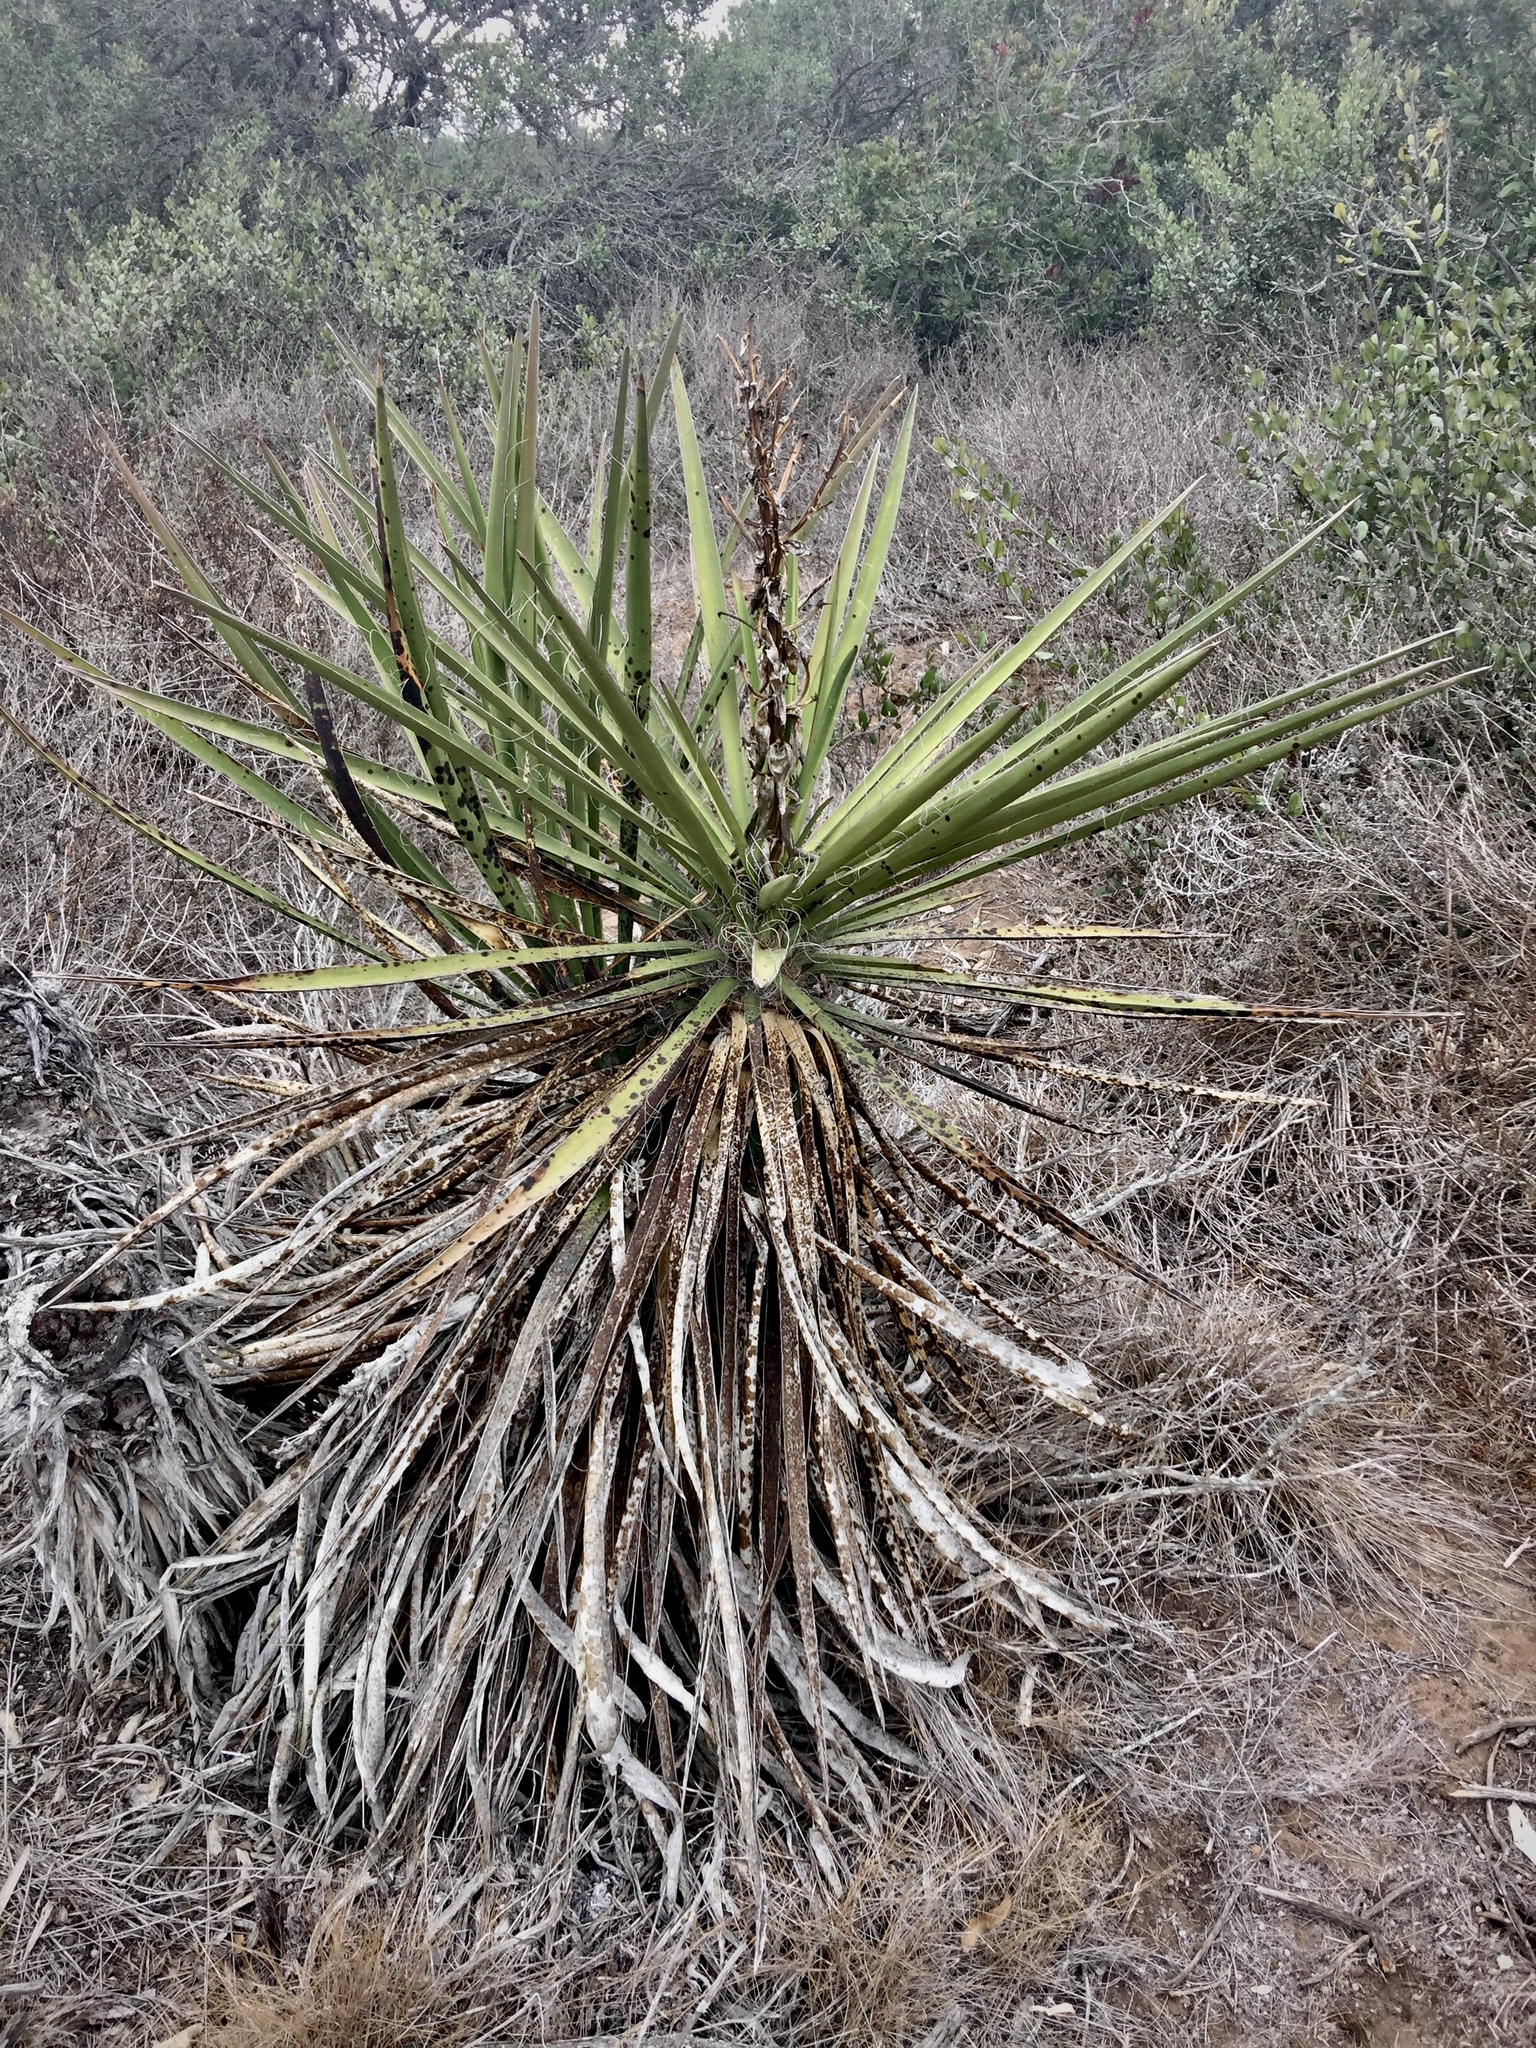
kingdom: Plantae
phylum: Tracheophyta
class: Liliopsida
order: Asparagales
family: Asparagaceae
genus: Yucca
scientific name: Yucca schidigera
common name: Mojave yucca
